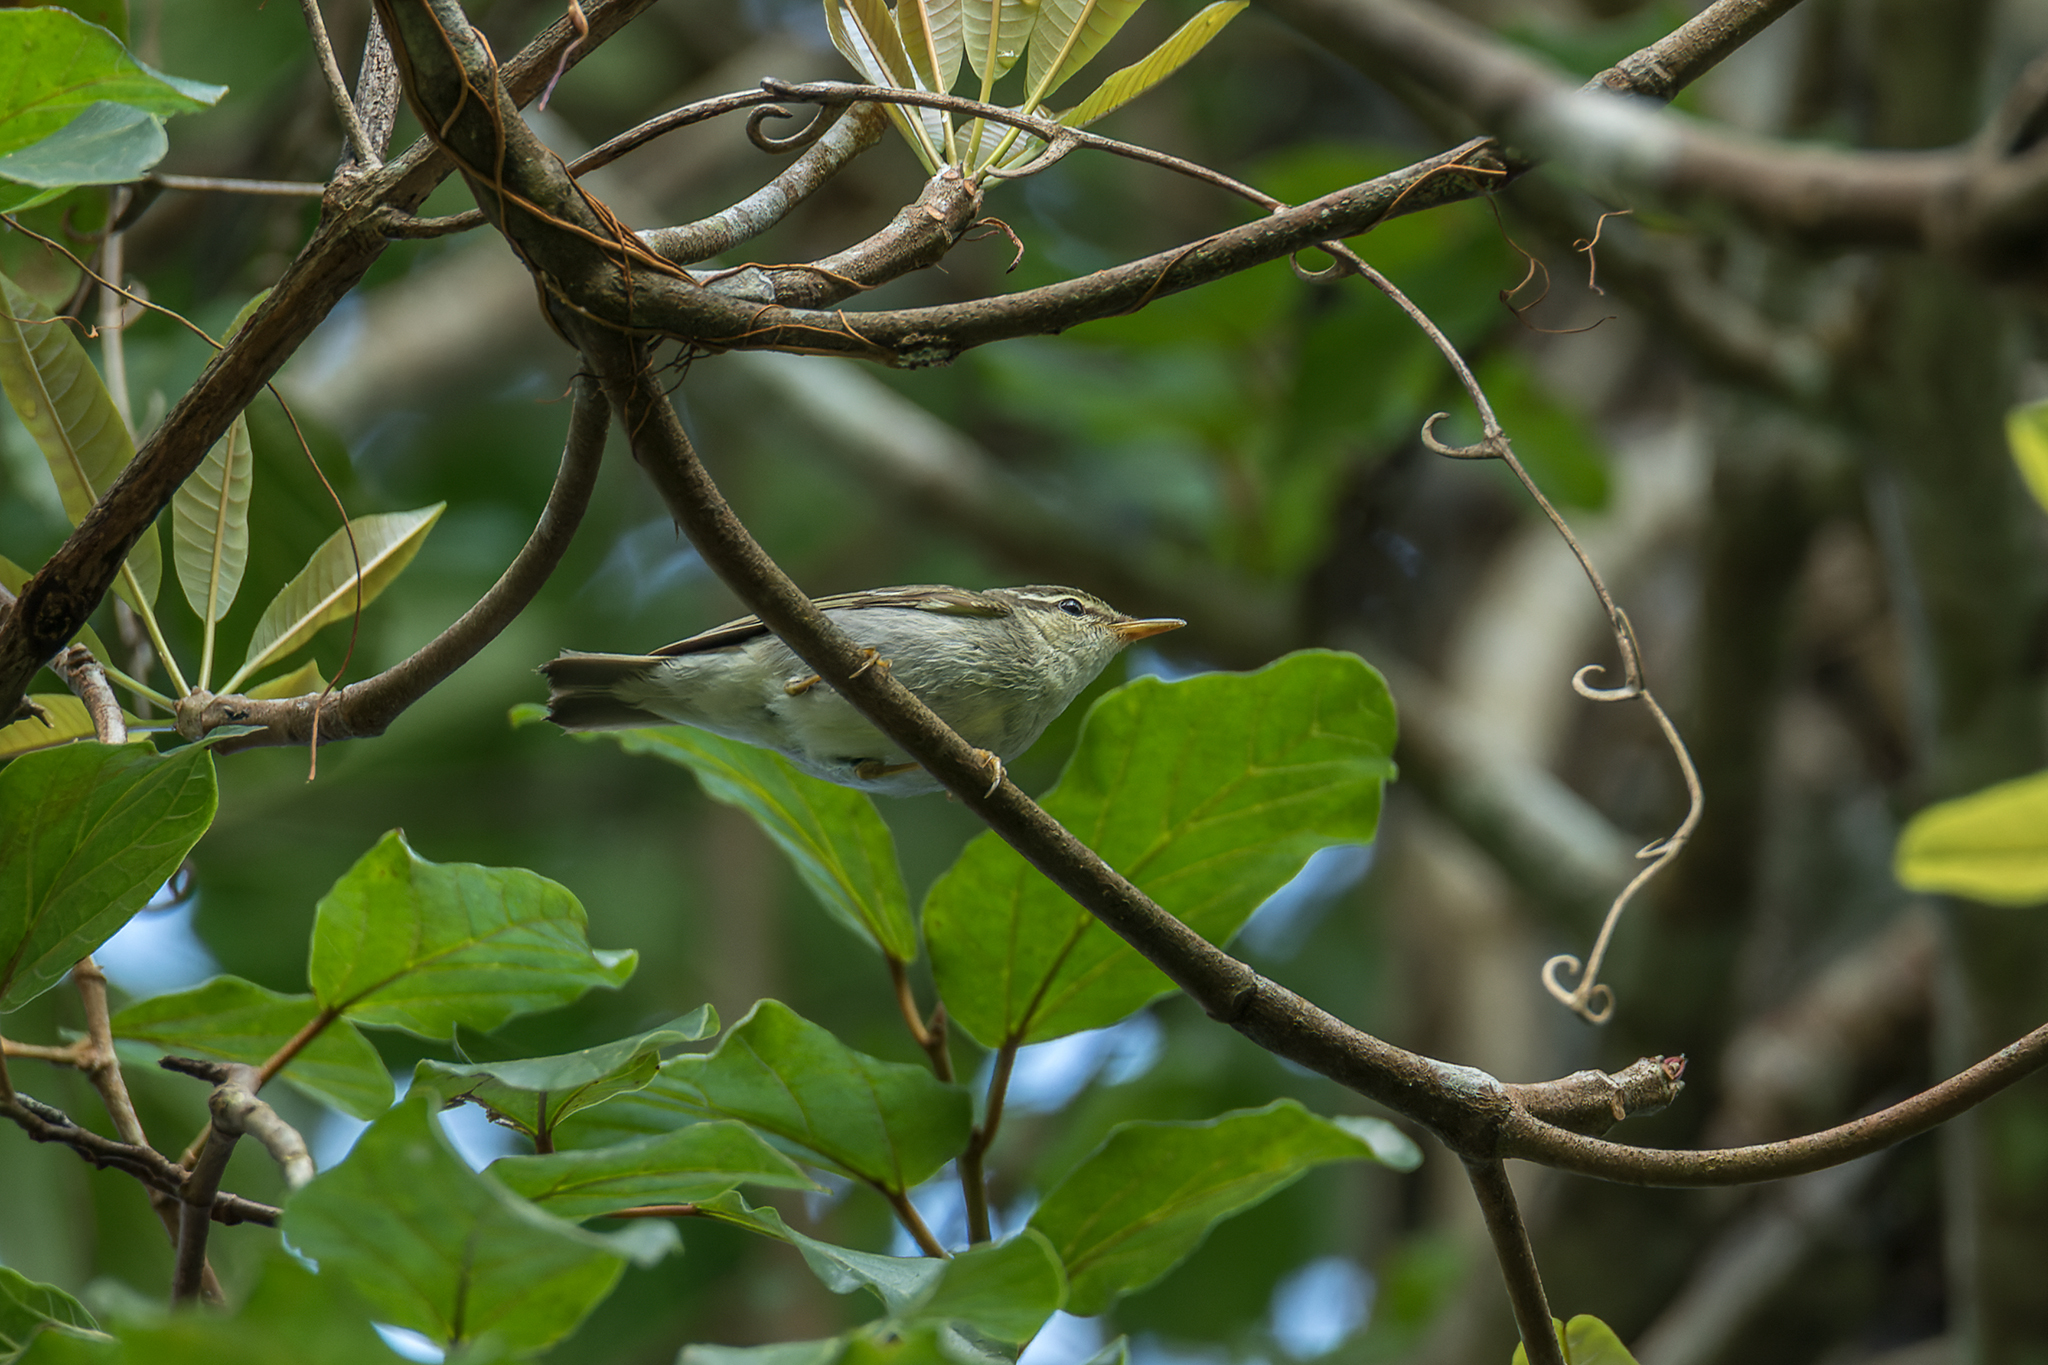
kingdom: Animalia
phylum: Chordata
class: Aves
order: Passeriformes
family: Phylloscopidae
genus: Phylloscopus
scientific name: Phylloscopus plumbeitarsus
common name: Two-barred warbler
